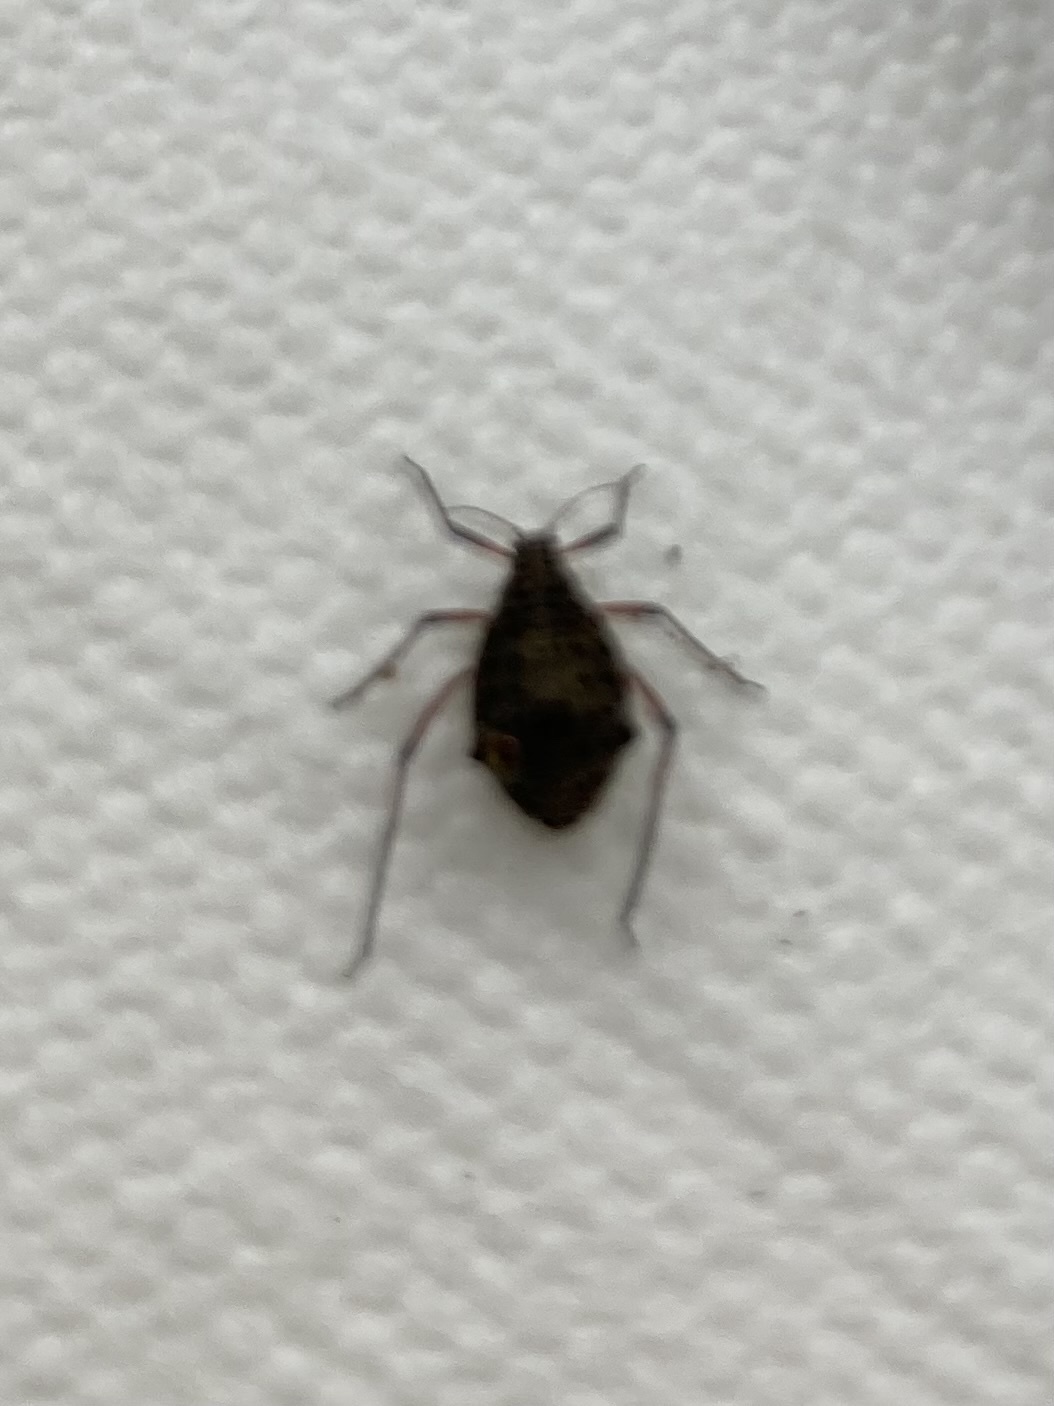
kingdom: Animalia
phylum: Arthropoda
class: Insecta
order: Hemiptera
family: Aphididae
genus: Tuberolachnus
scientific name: Tuberolachnus salignus
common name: Giant willow aphid
